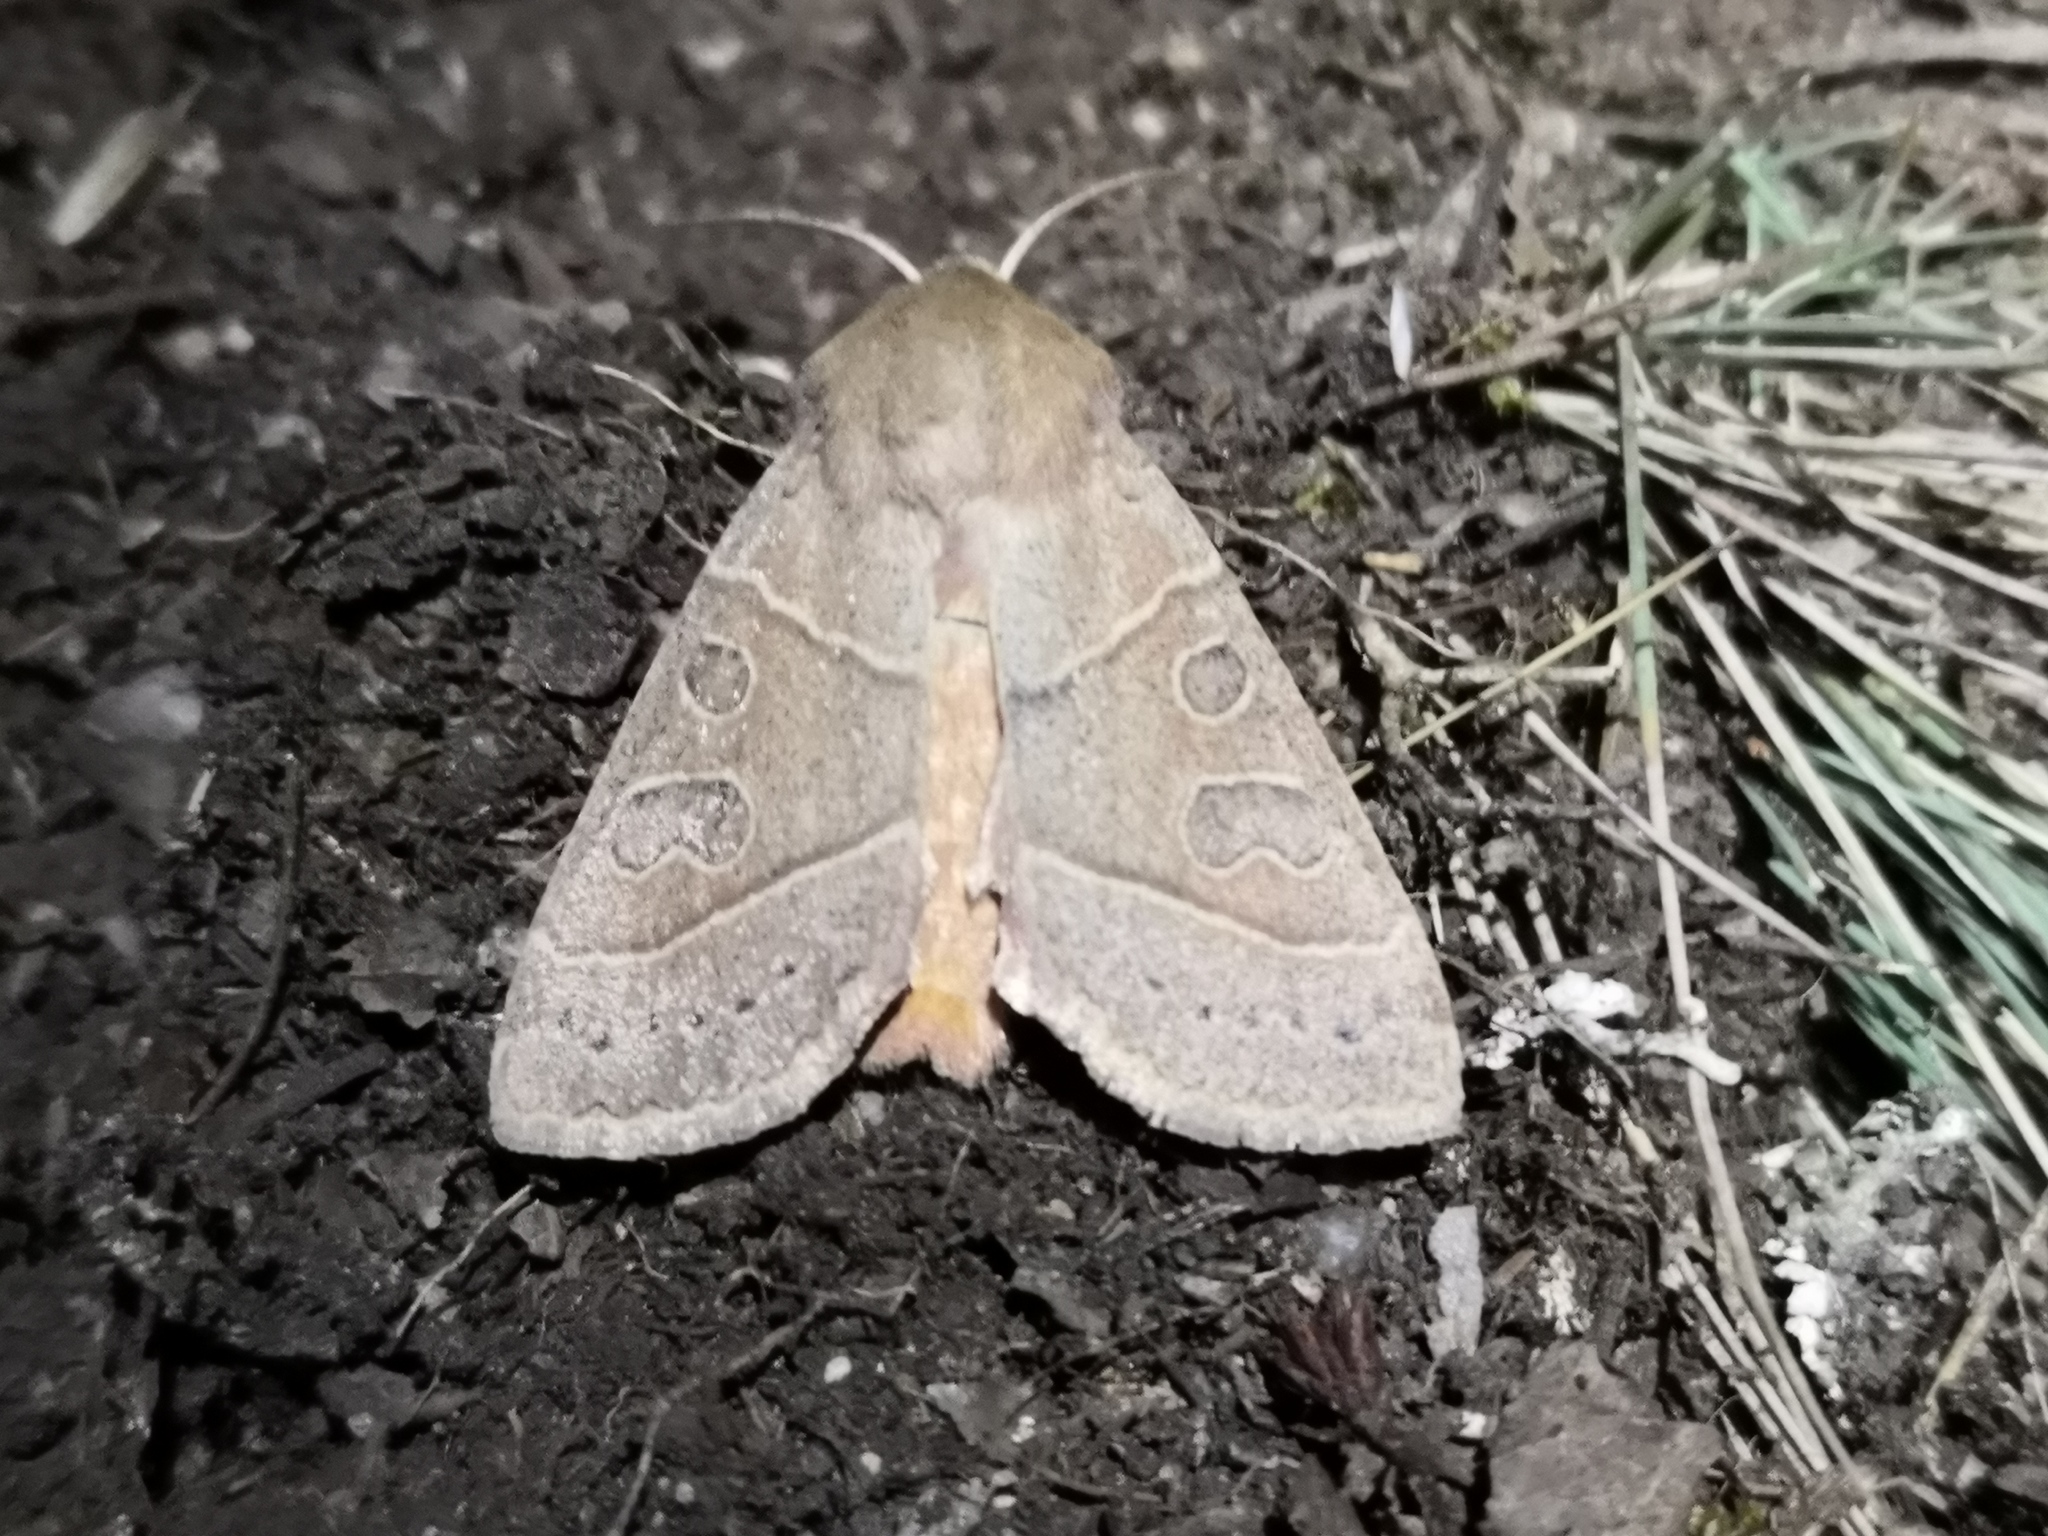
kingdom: Animalia
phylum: Arthropoda
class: Insecta
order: Lepidoptera
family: Noctuidae
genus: Mesogona
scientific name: Mesogona acetosellae
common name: Pale stigma
